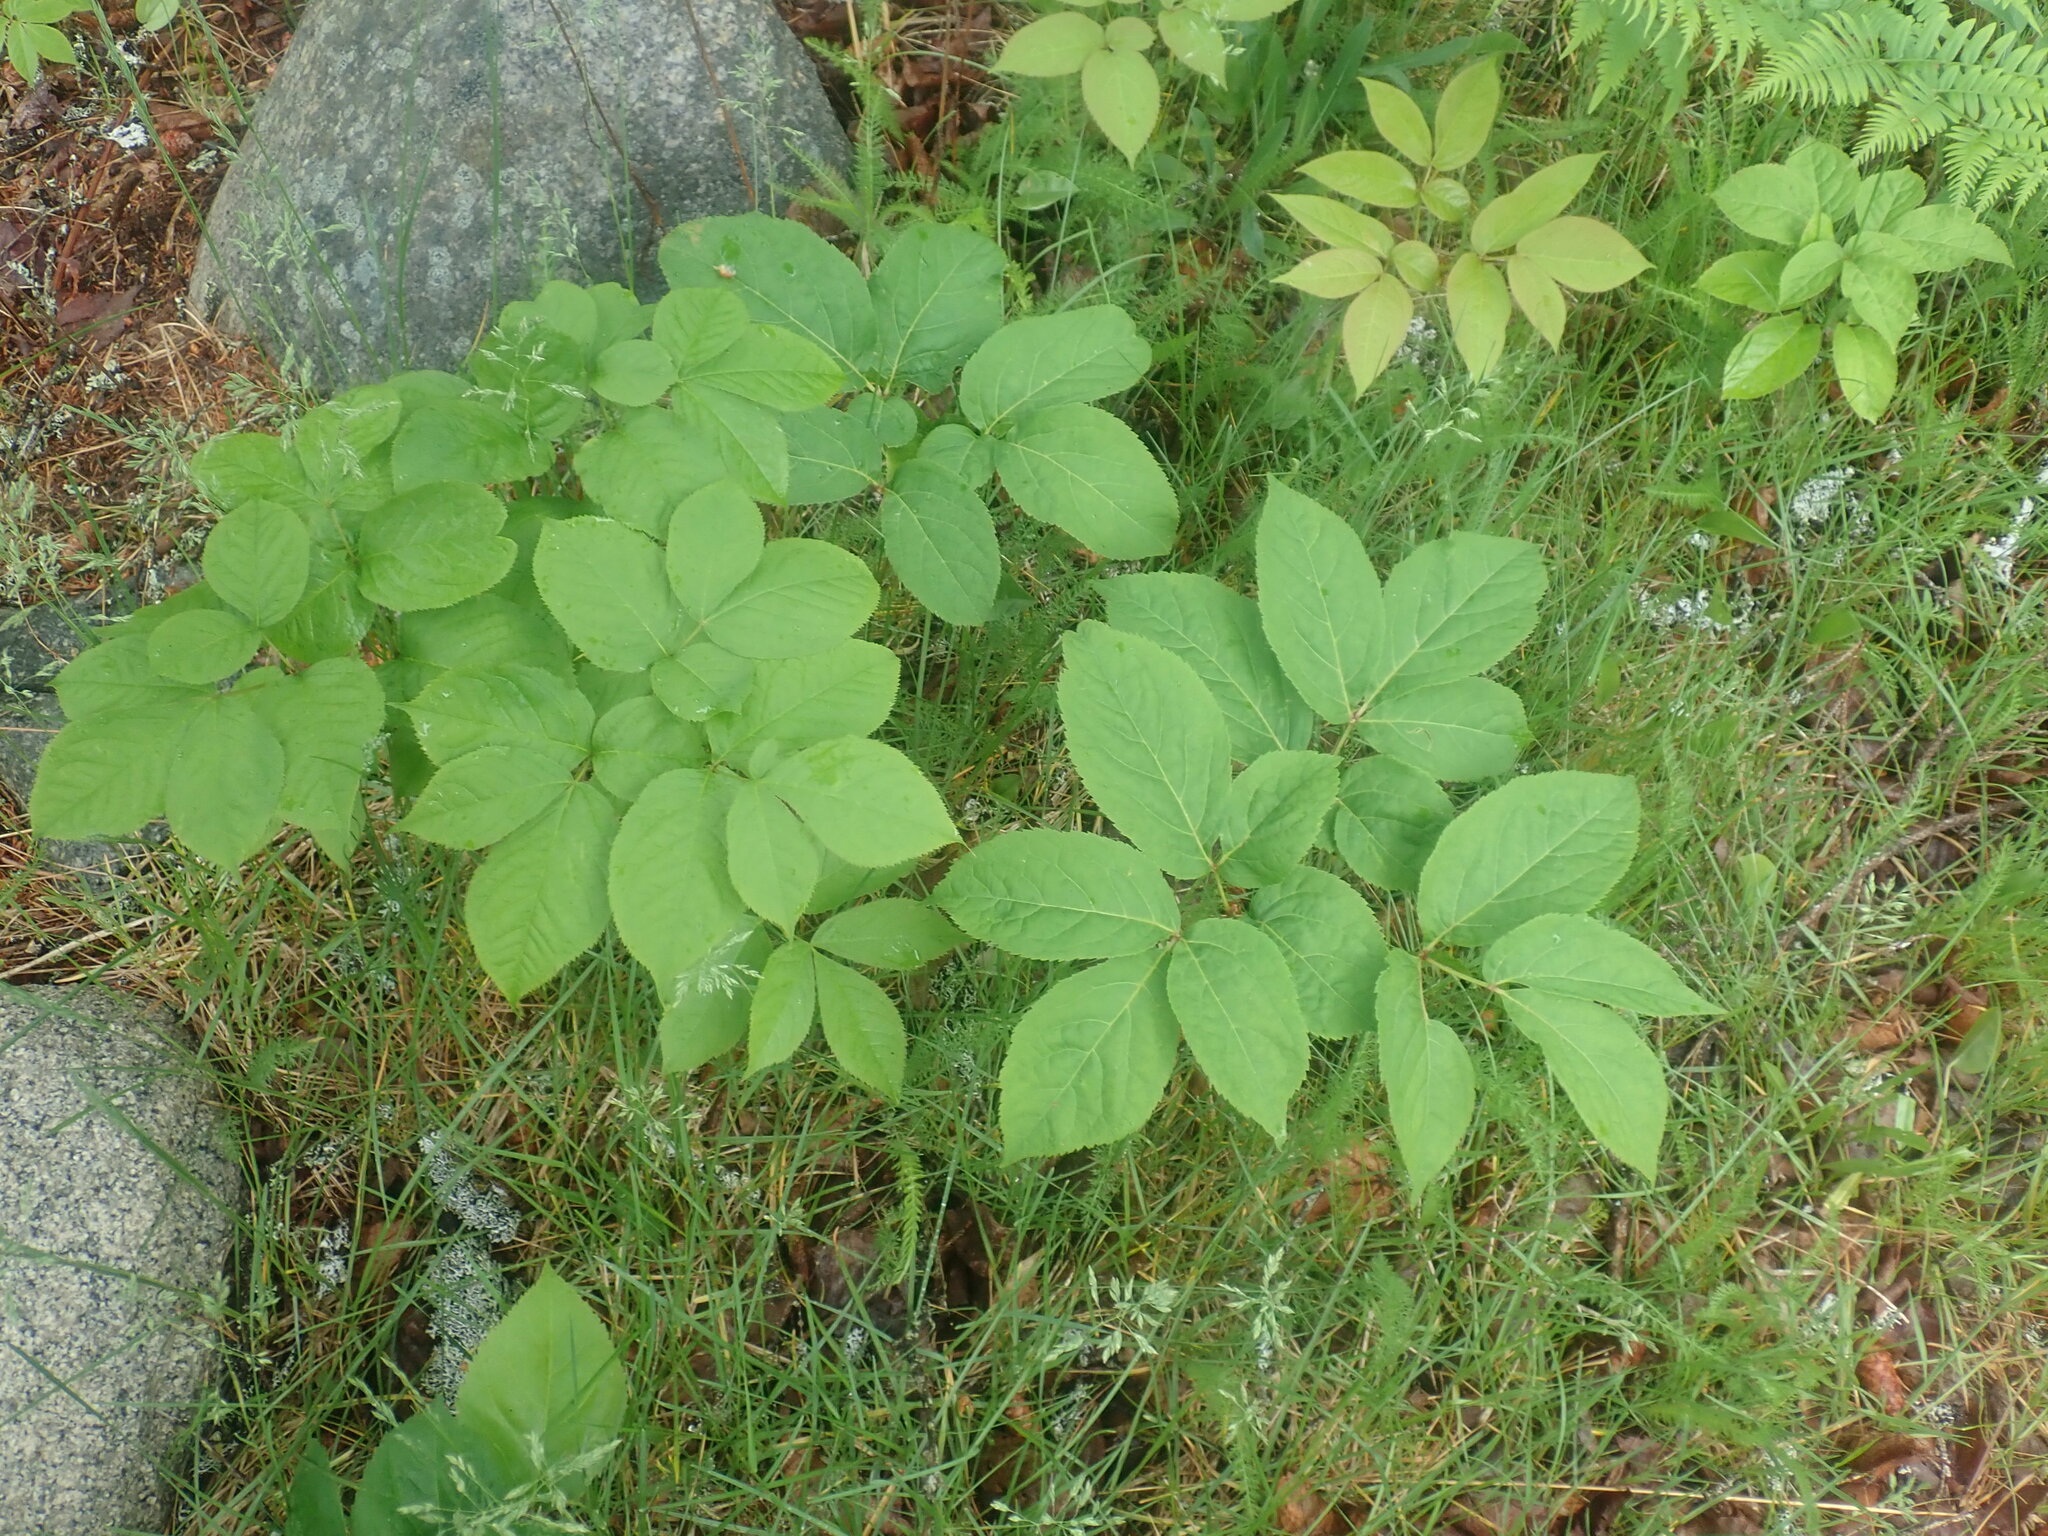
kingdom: Plantae
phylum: Tracheophyta
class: Magnoliopsida
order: Apiales
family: Araliaceae
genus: Aralia
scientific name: Aralia nudicaulis
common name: Wild sarsaparilla
